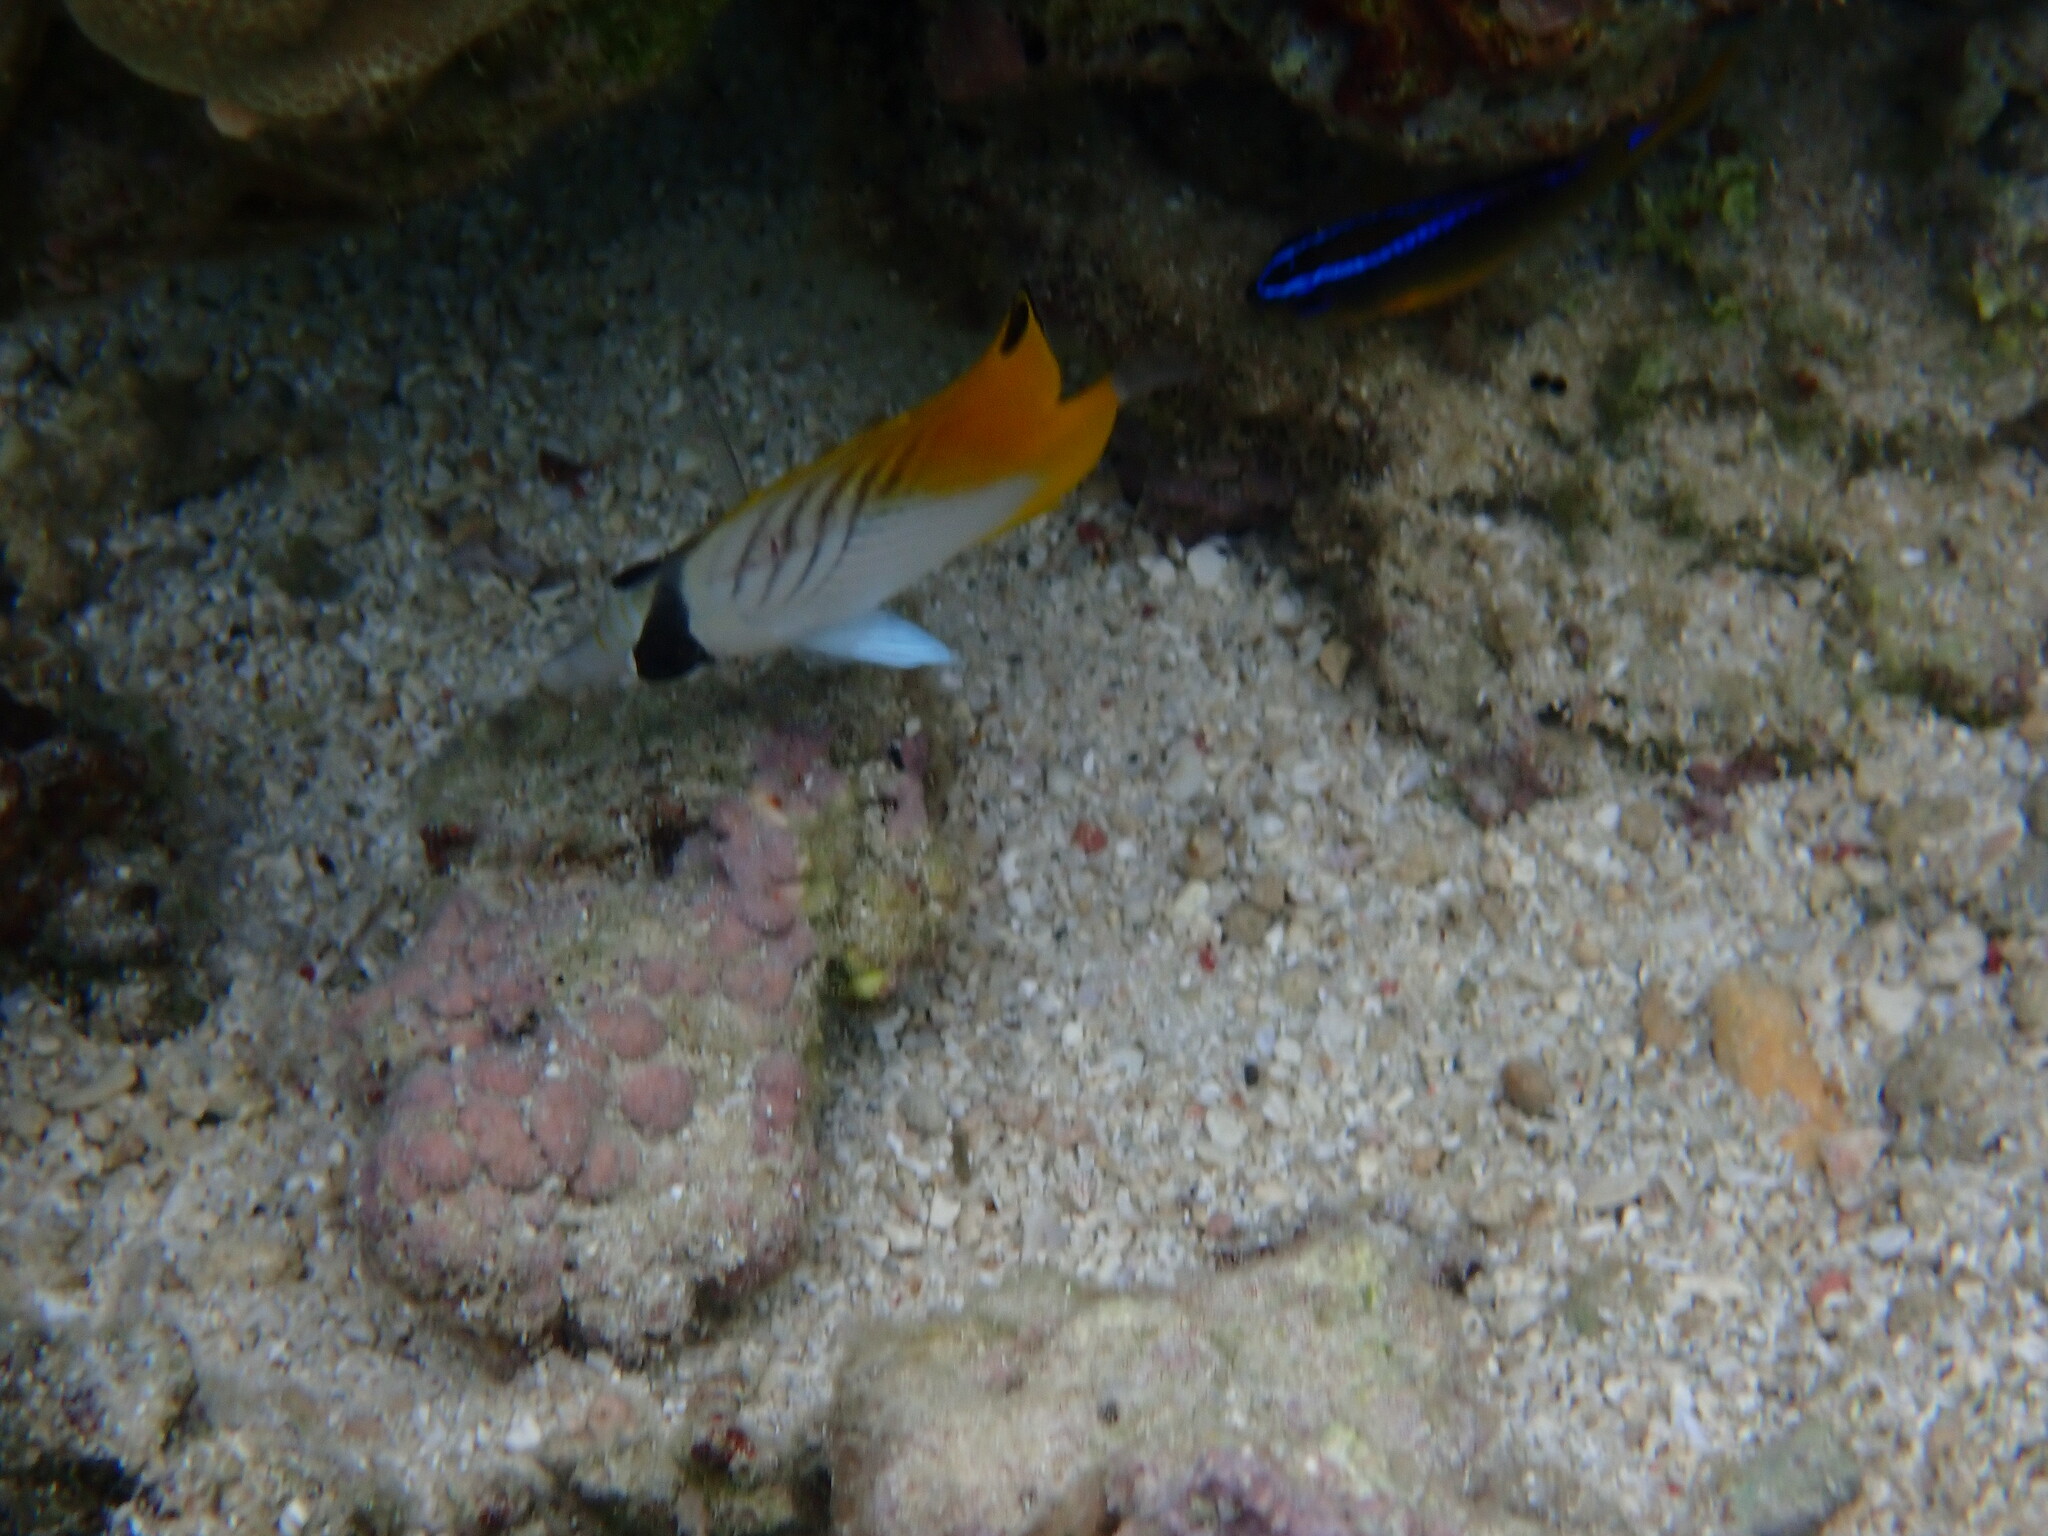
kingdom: Animalia
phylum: Chordata
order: Perciformes
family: Chaetodontidae
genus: Chaetodon
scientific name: Chaetodon auriga
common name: Threadfin butterflyfish
